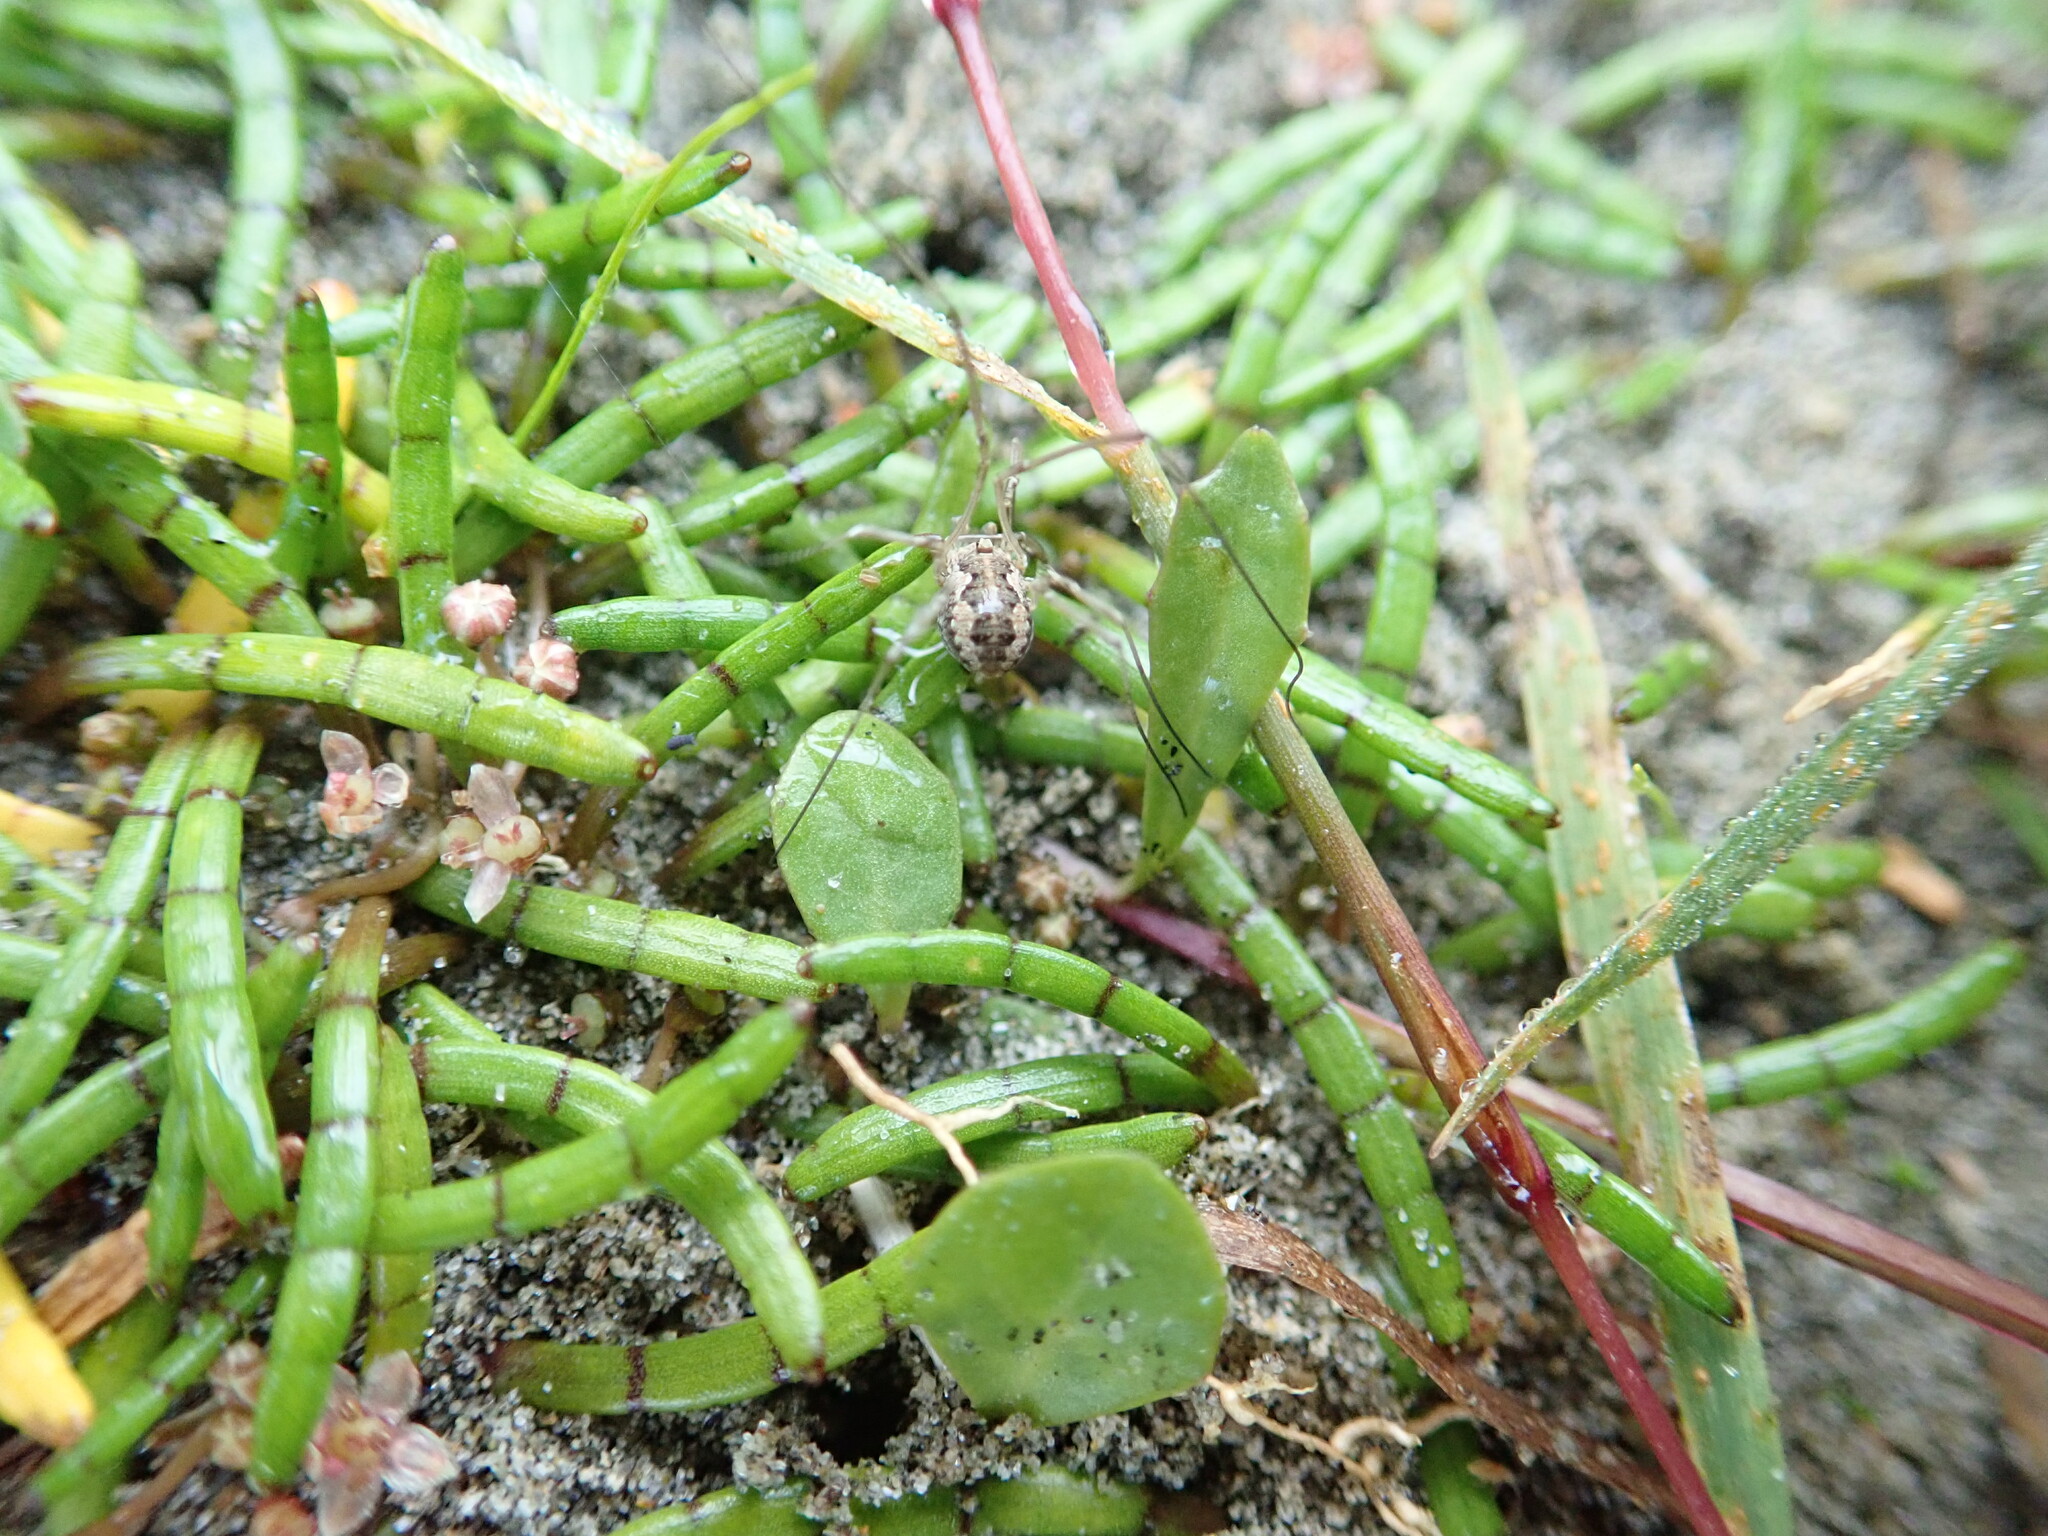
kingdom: Animalia
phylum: Arthropoda
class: Arachnida
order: Opiliones
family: Phalangiidae
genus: Phalangium
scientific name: Phalangium opilio
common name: Daddy longleg
